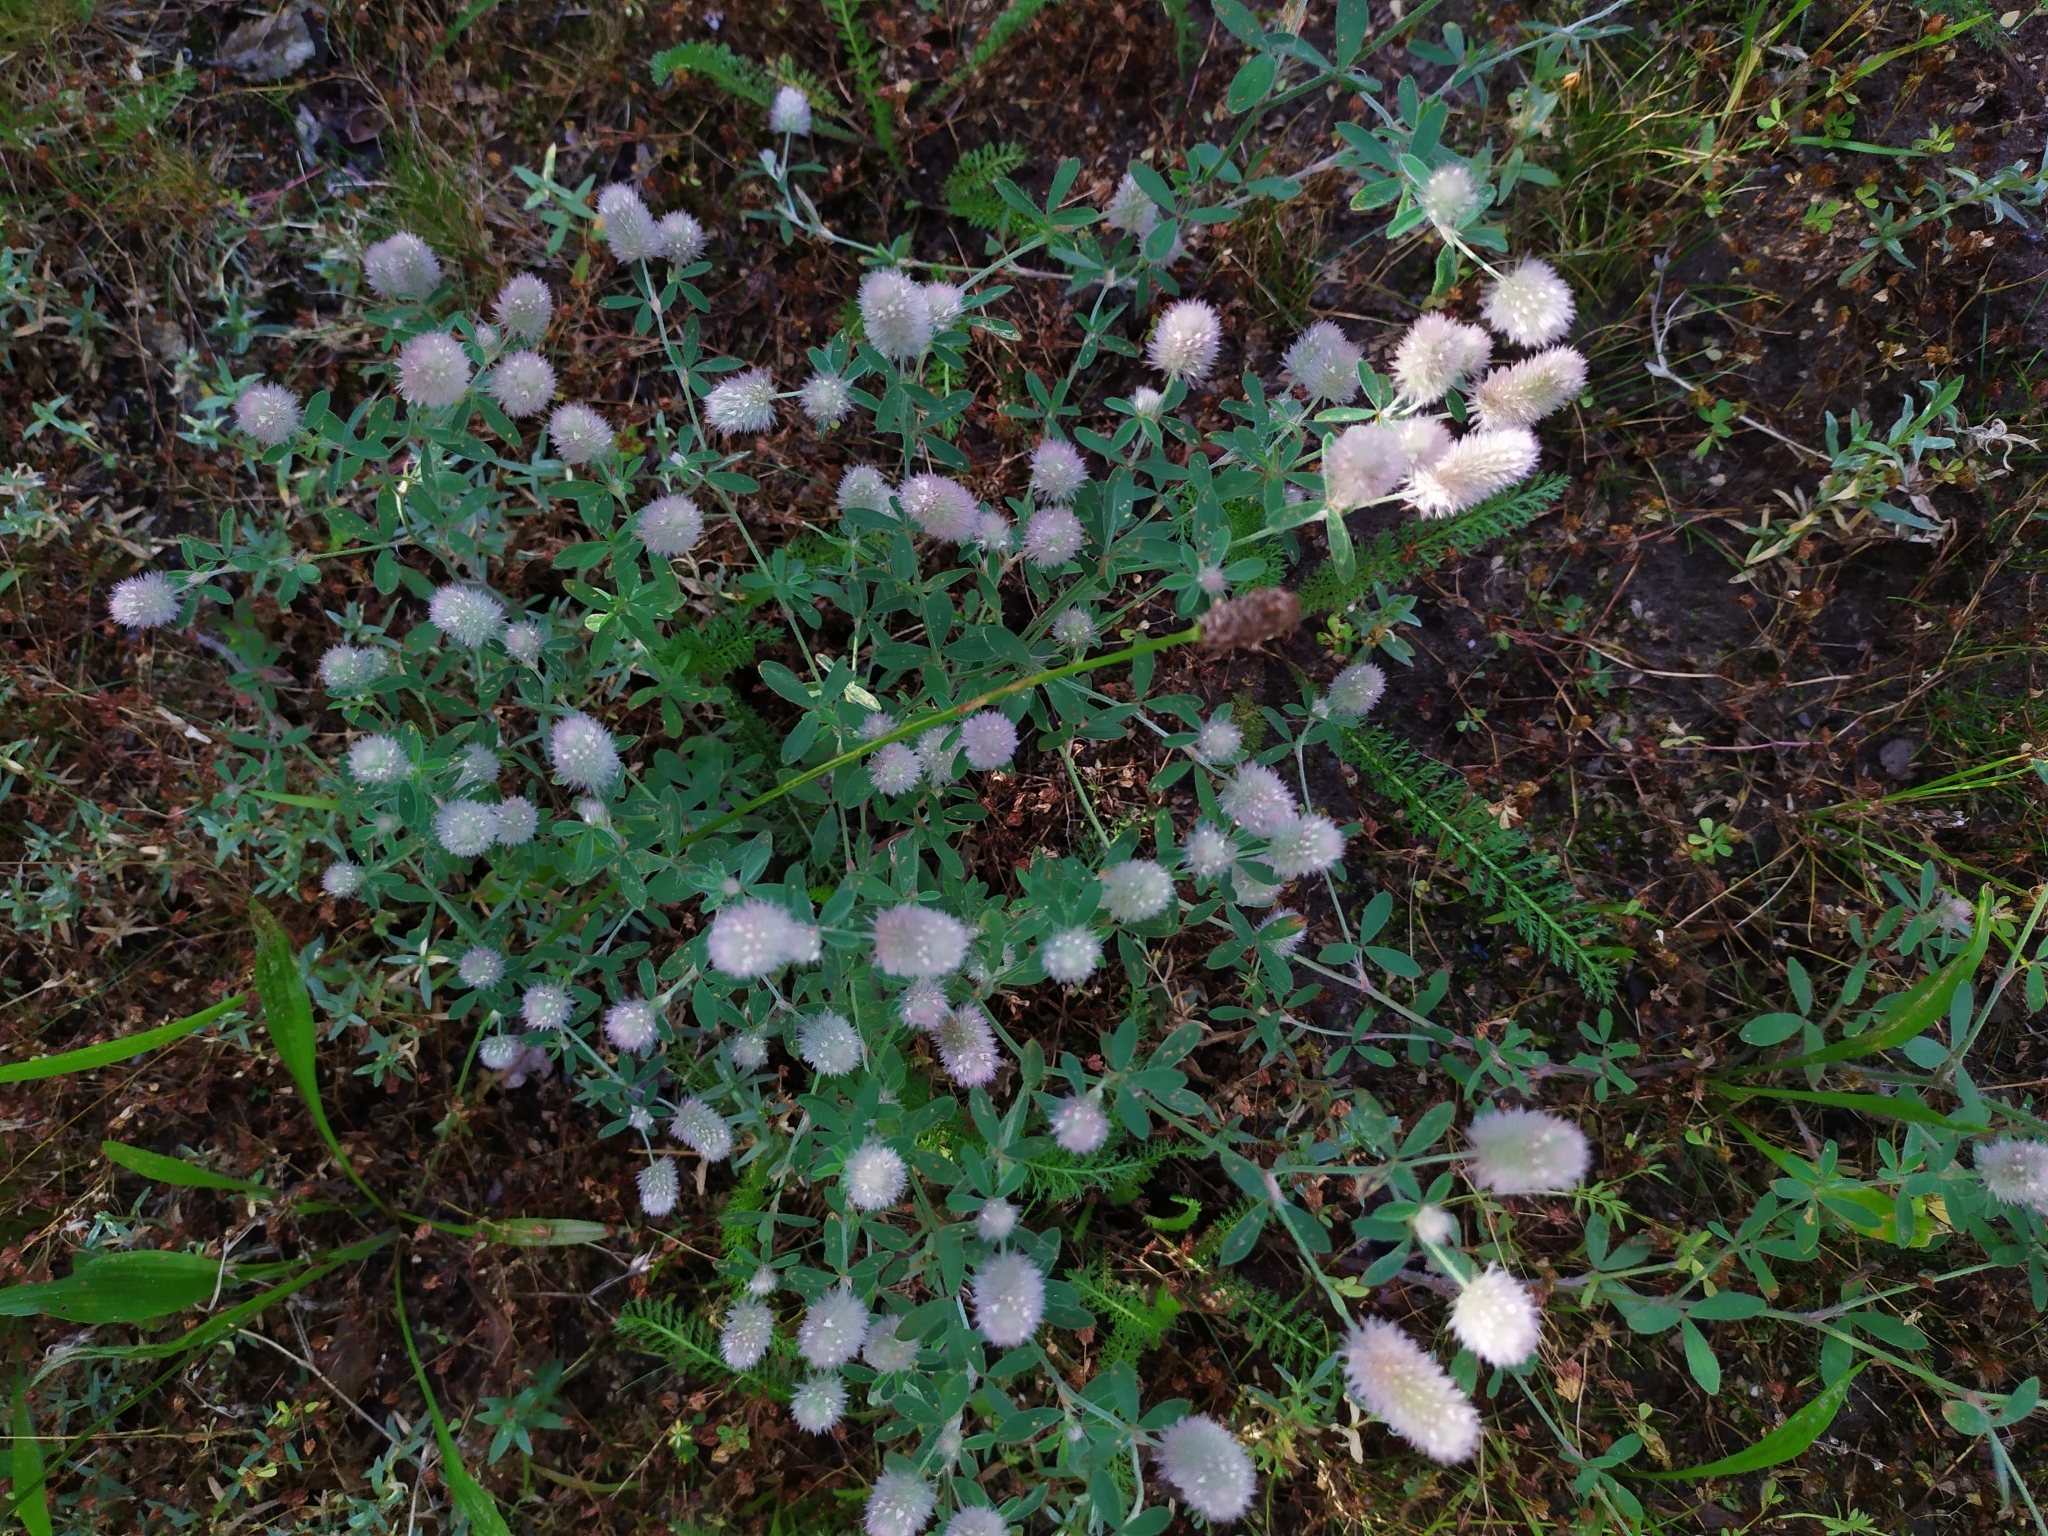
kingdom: Plantae
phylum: Tracheophyta
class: Magnoliopsida
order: Fabales
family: Fabaceae
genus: Trifolium
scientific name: Trifolium arvense
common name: Hare's-foot clover
